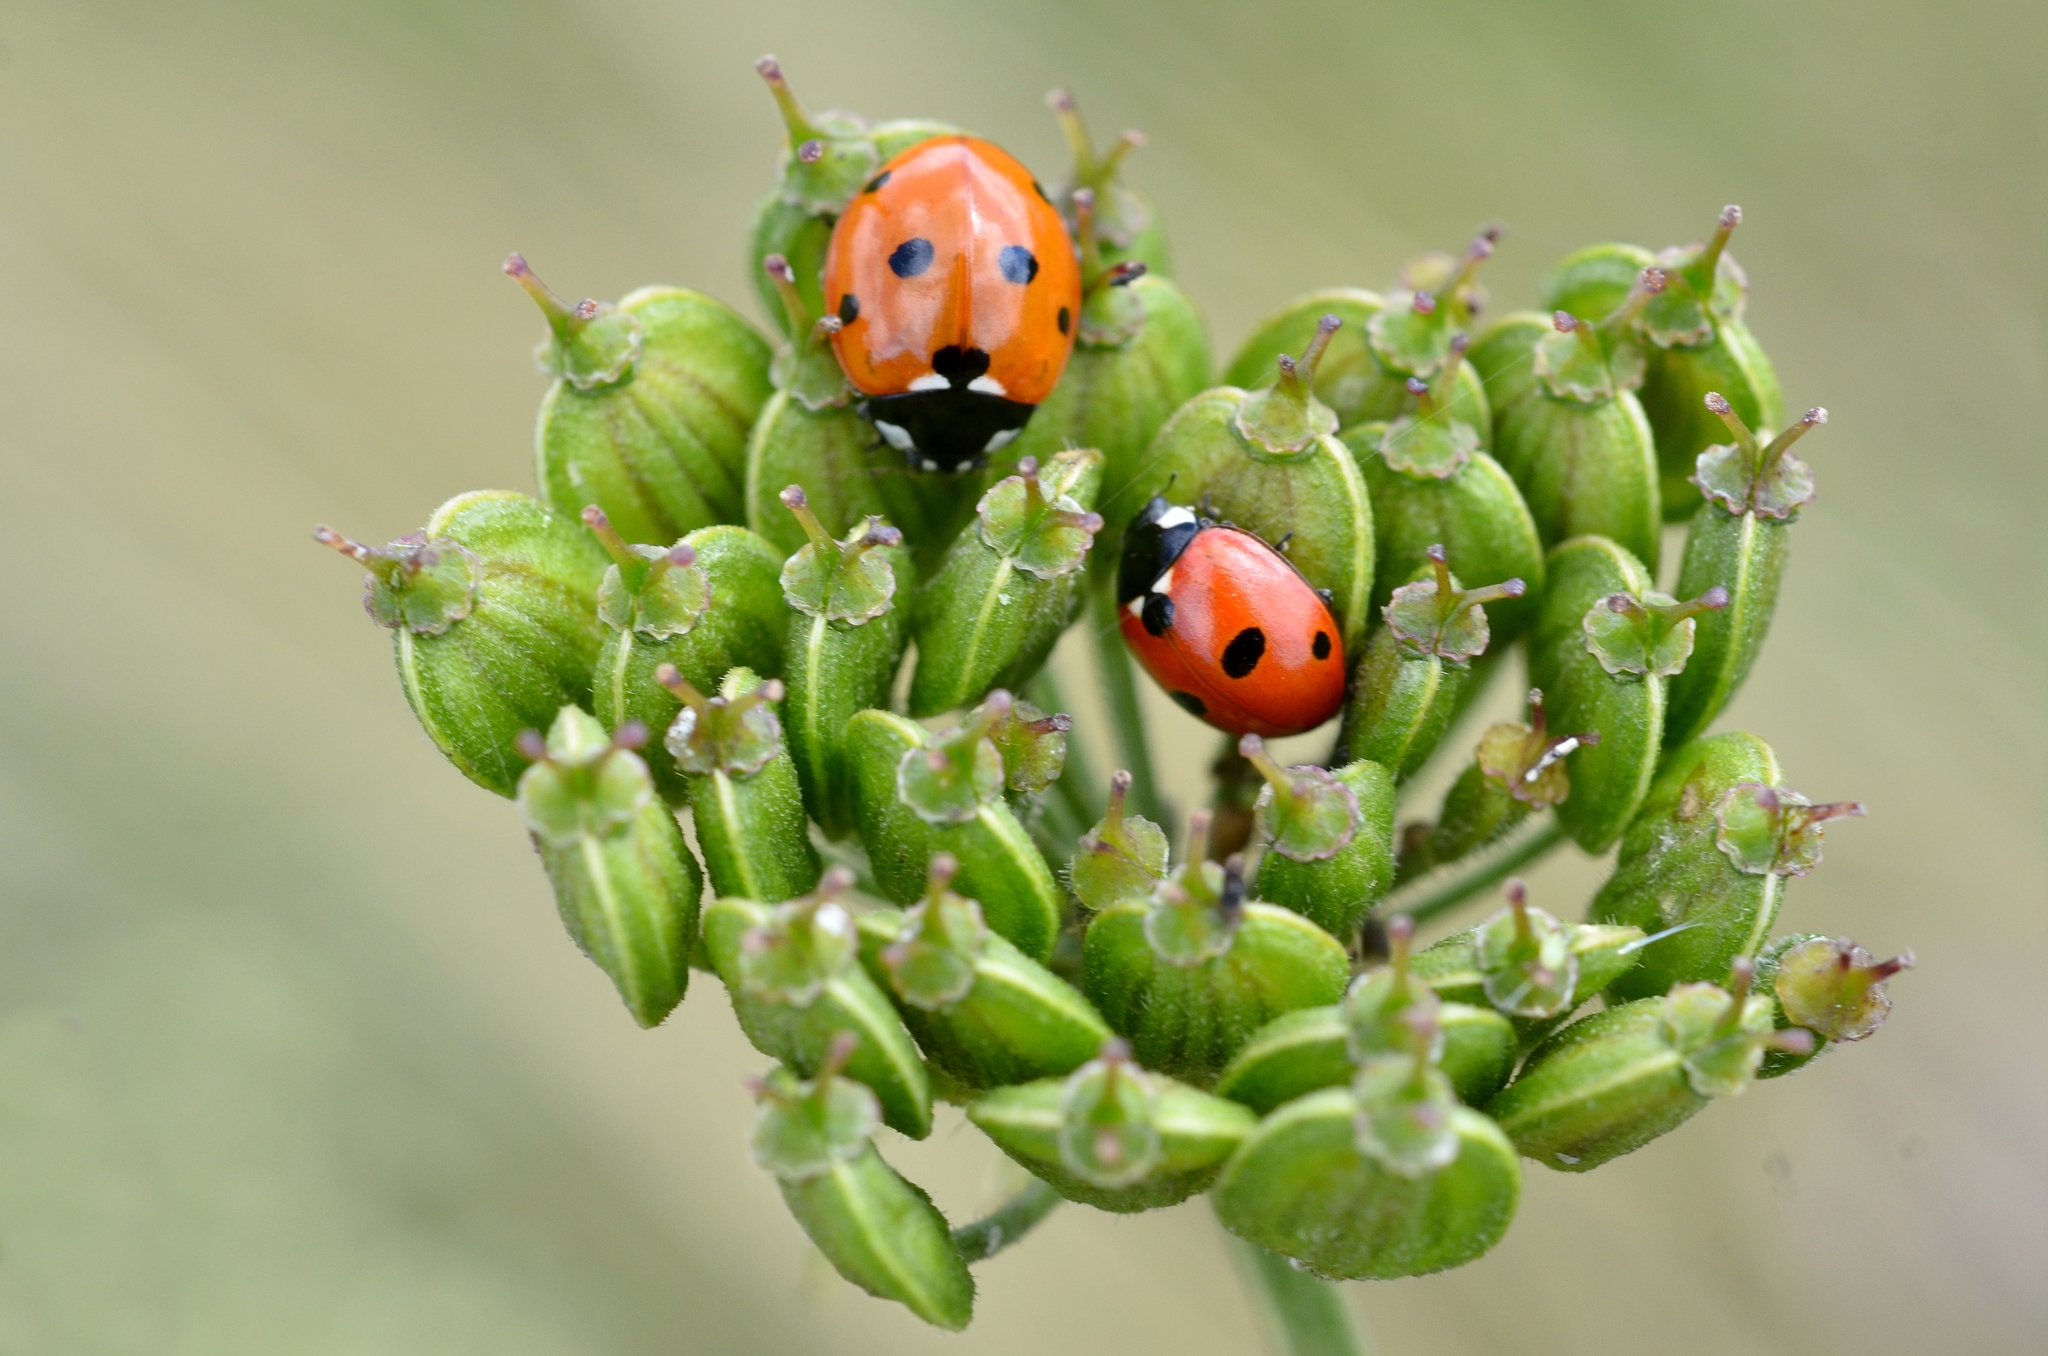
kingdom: Animalia
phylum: Arthropoda
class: Insecta
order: Coleoptera
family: Coccinellidae
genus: Coccinella
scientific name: Coccinella septempunctata
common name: Sevenspotted lady beetle
